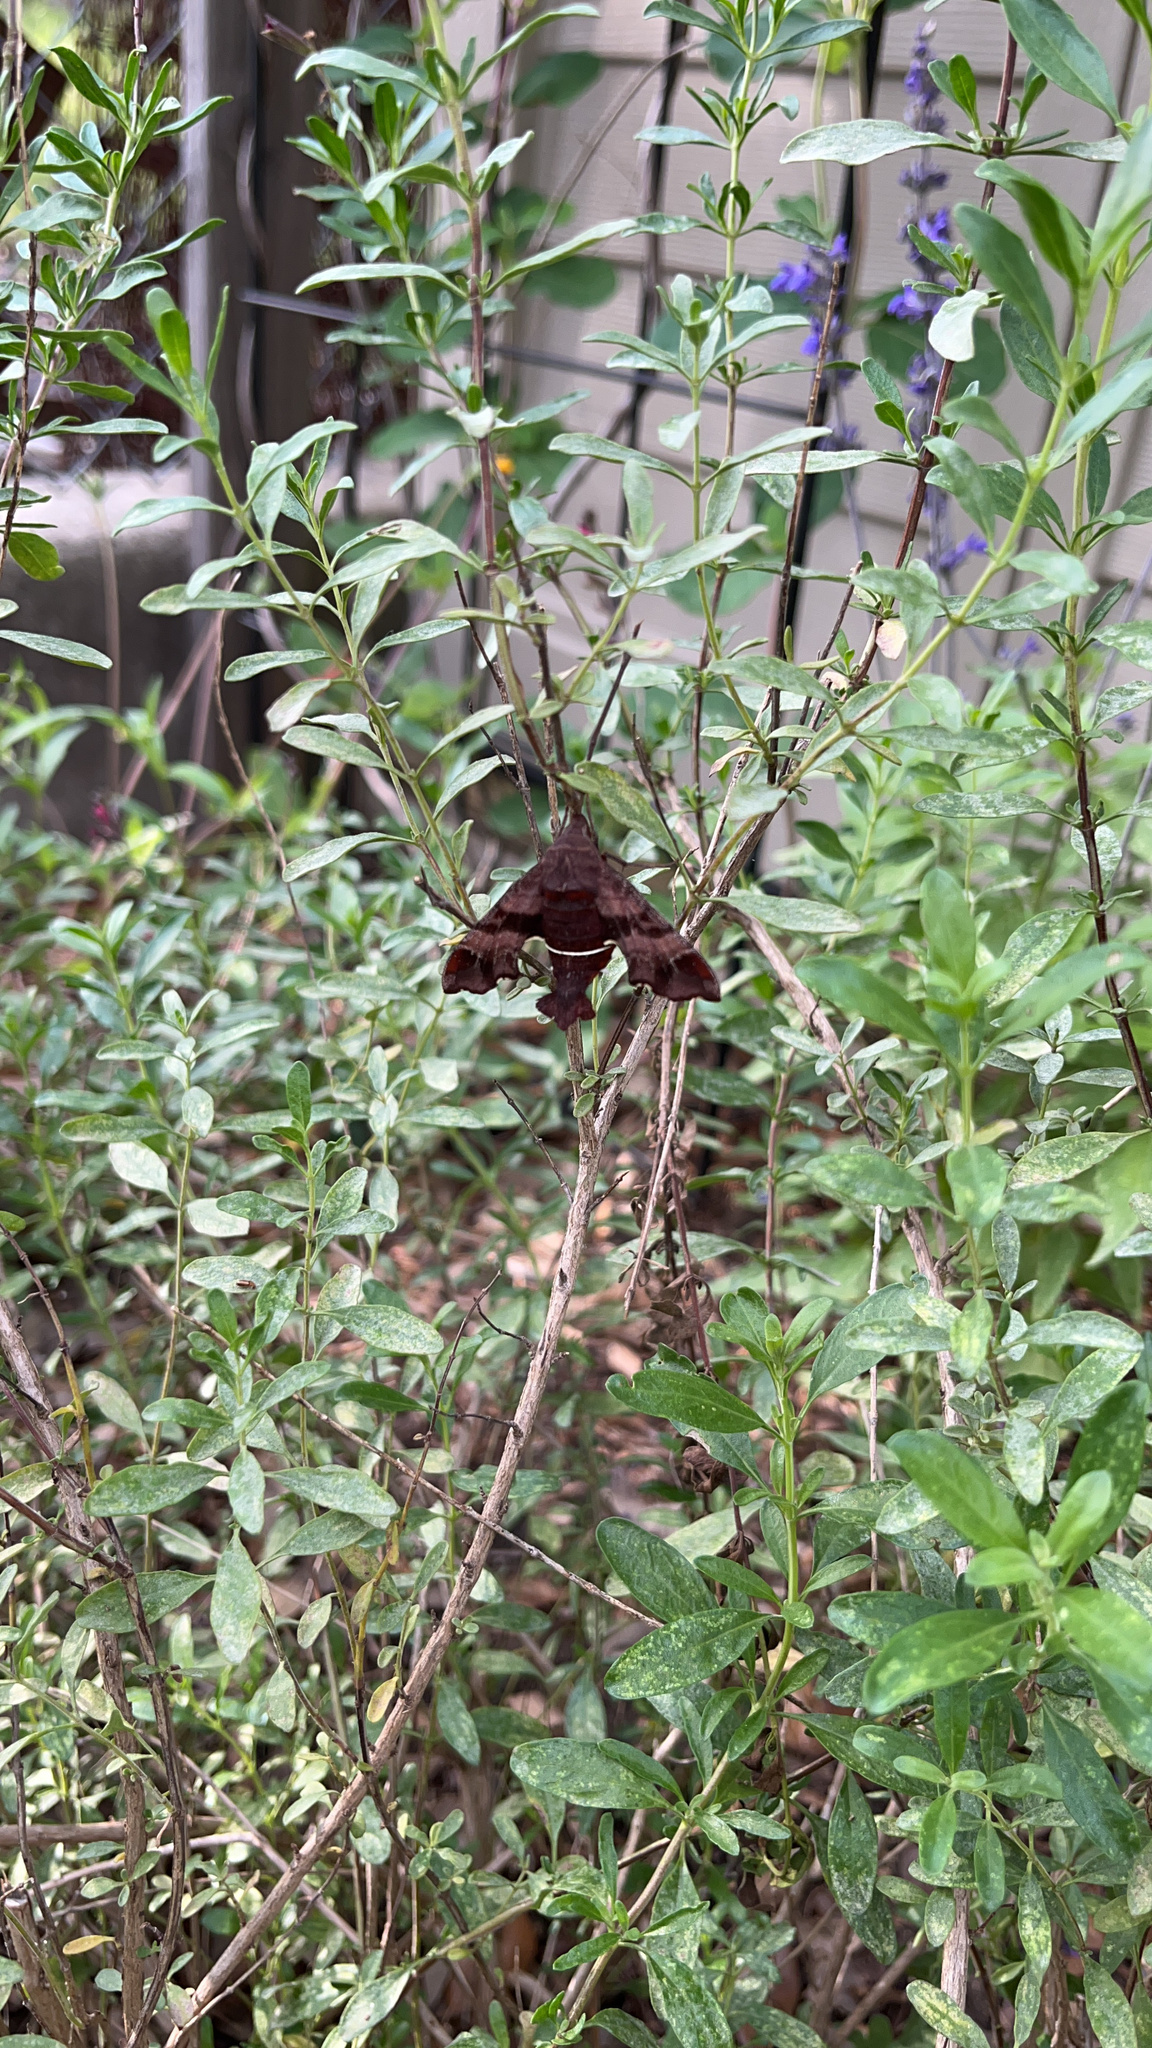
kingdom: Animalia
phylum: Arthropoda
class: Insecta
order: Lepidoptera
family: Sphingidae
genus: Amphion
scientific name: Amphion floridensis
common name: Nessus sphinx
